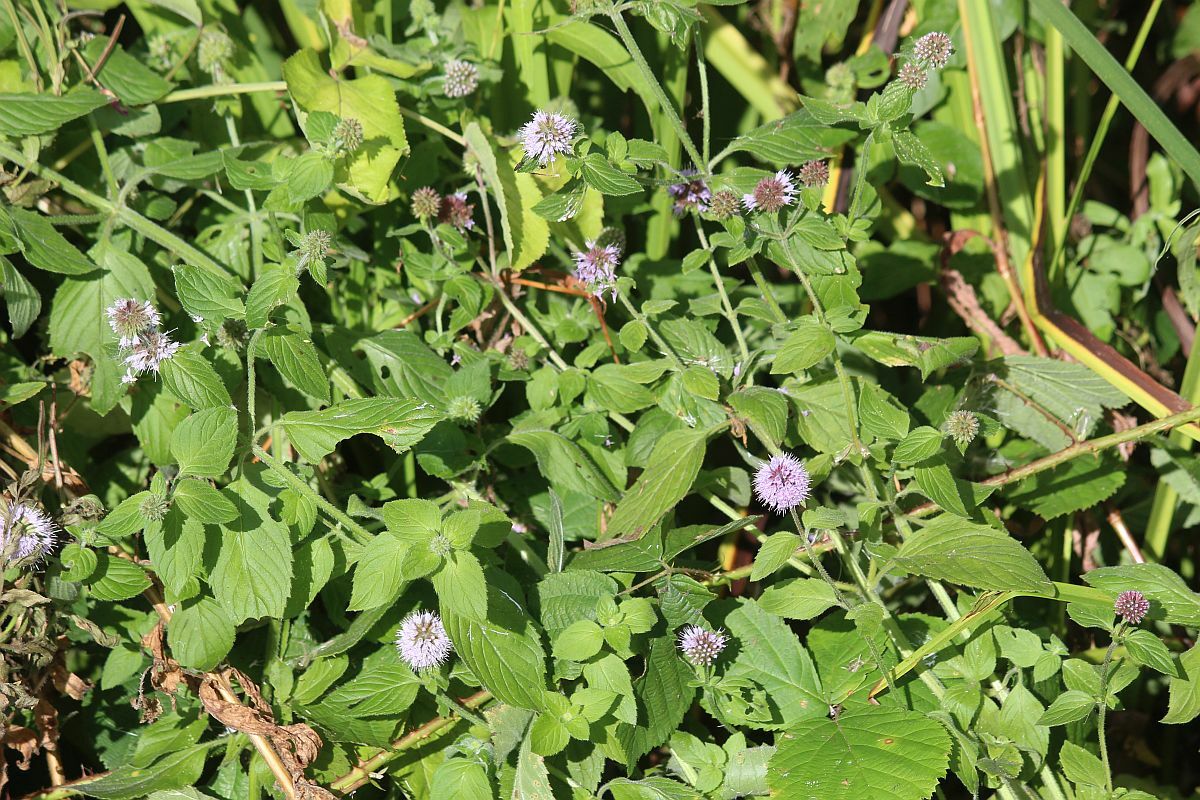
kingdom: Plantae
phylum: Tracheophyta
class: Magnoliopsida
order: Lamiales
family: Lamiaceae
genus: Mentha
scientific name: Mentha aquatica
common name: Water mint
